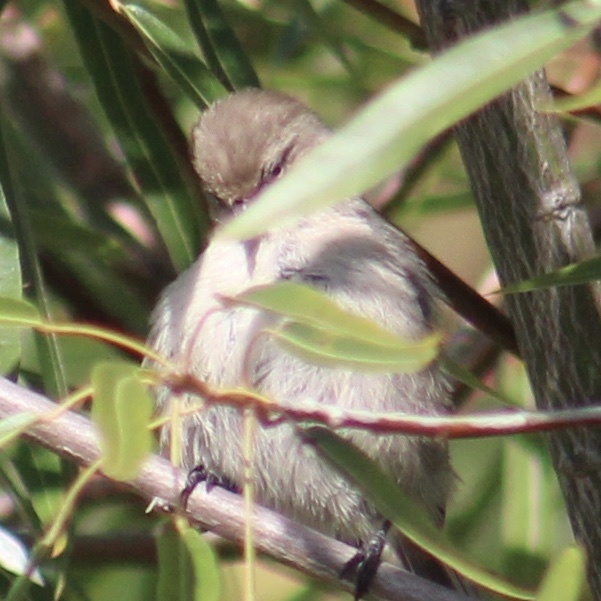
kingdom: Animalia
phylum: Chordata
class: Aves
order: Passeriformes
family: Aegithalidae
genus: Psaltriparus
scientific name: Psaltriparus minimus
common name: American bushtit
